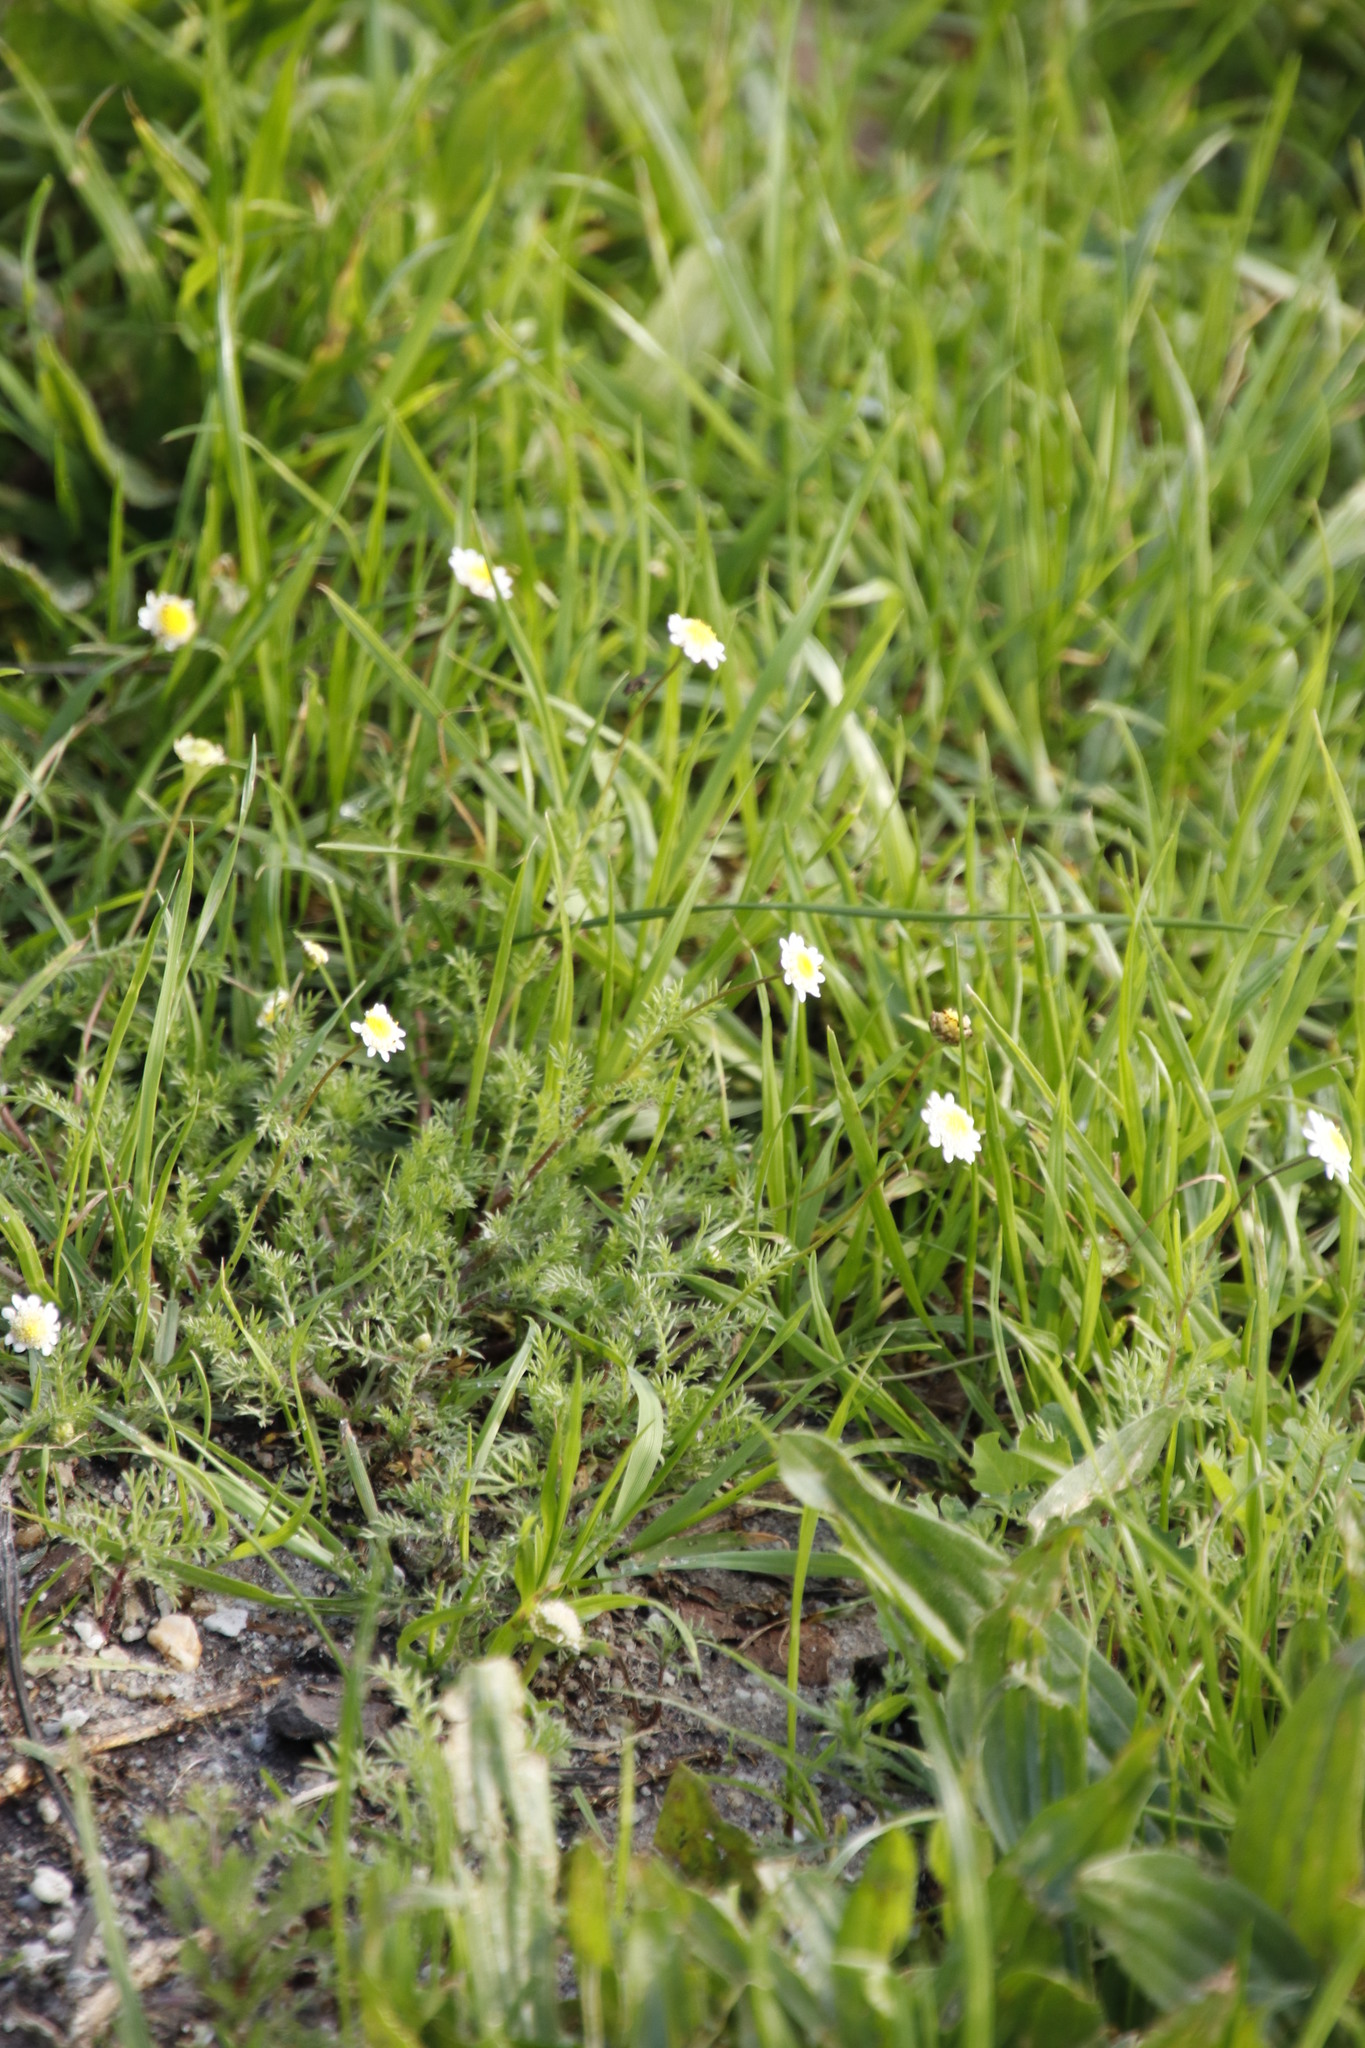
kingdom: Plantae
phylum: Tracheophyta
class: Magnoliopsida
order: Asterales
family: Asteraceae
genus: Cotula
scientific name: Cotula turbinata
